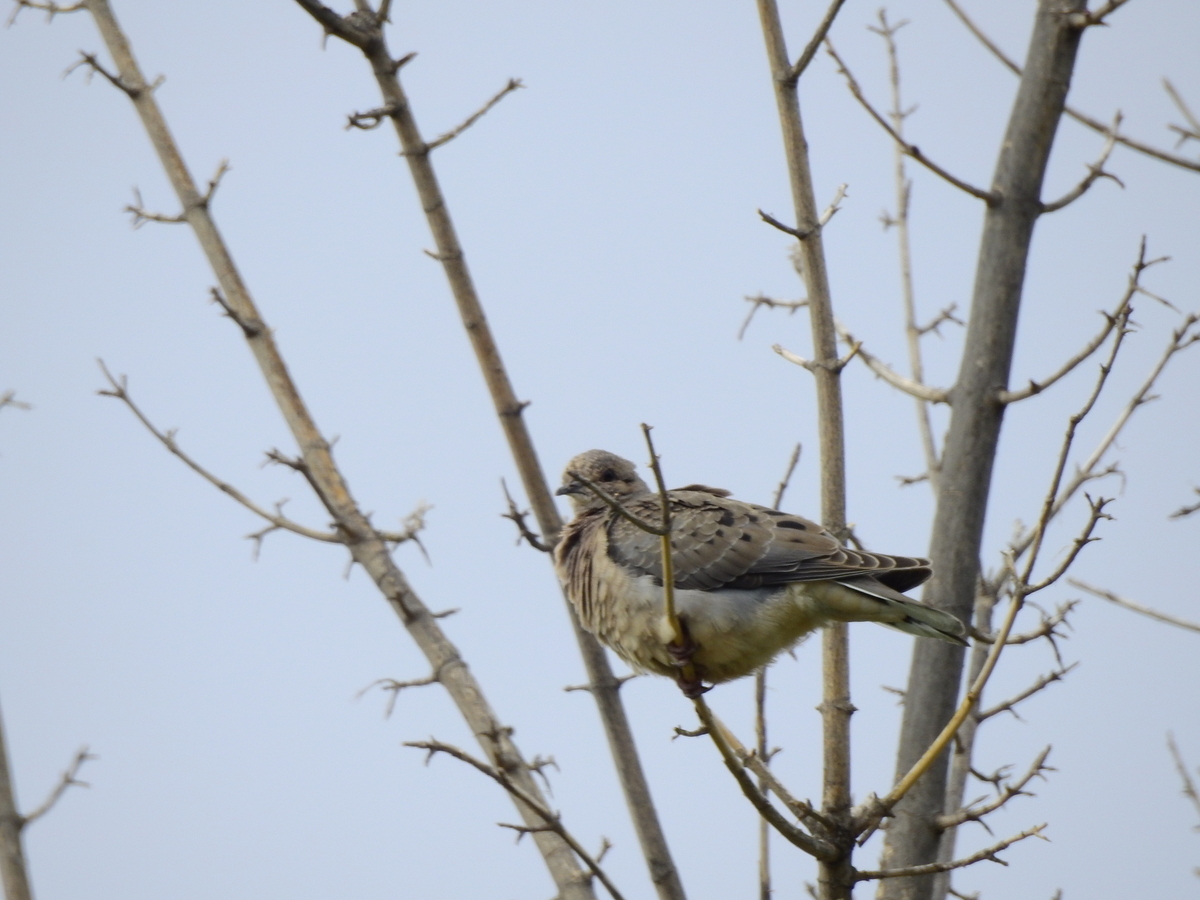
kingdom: Animalia
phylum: Chordata
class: Aves
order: Columbiformes
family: Columbidae
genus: Zenaida
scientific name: Zenaida auriculata
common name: Eared dove
